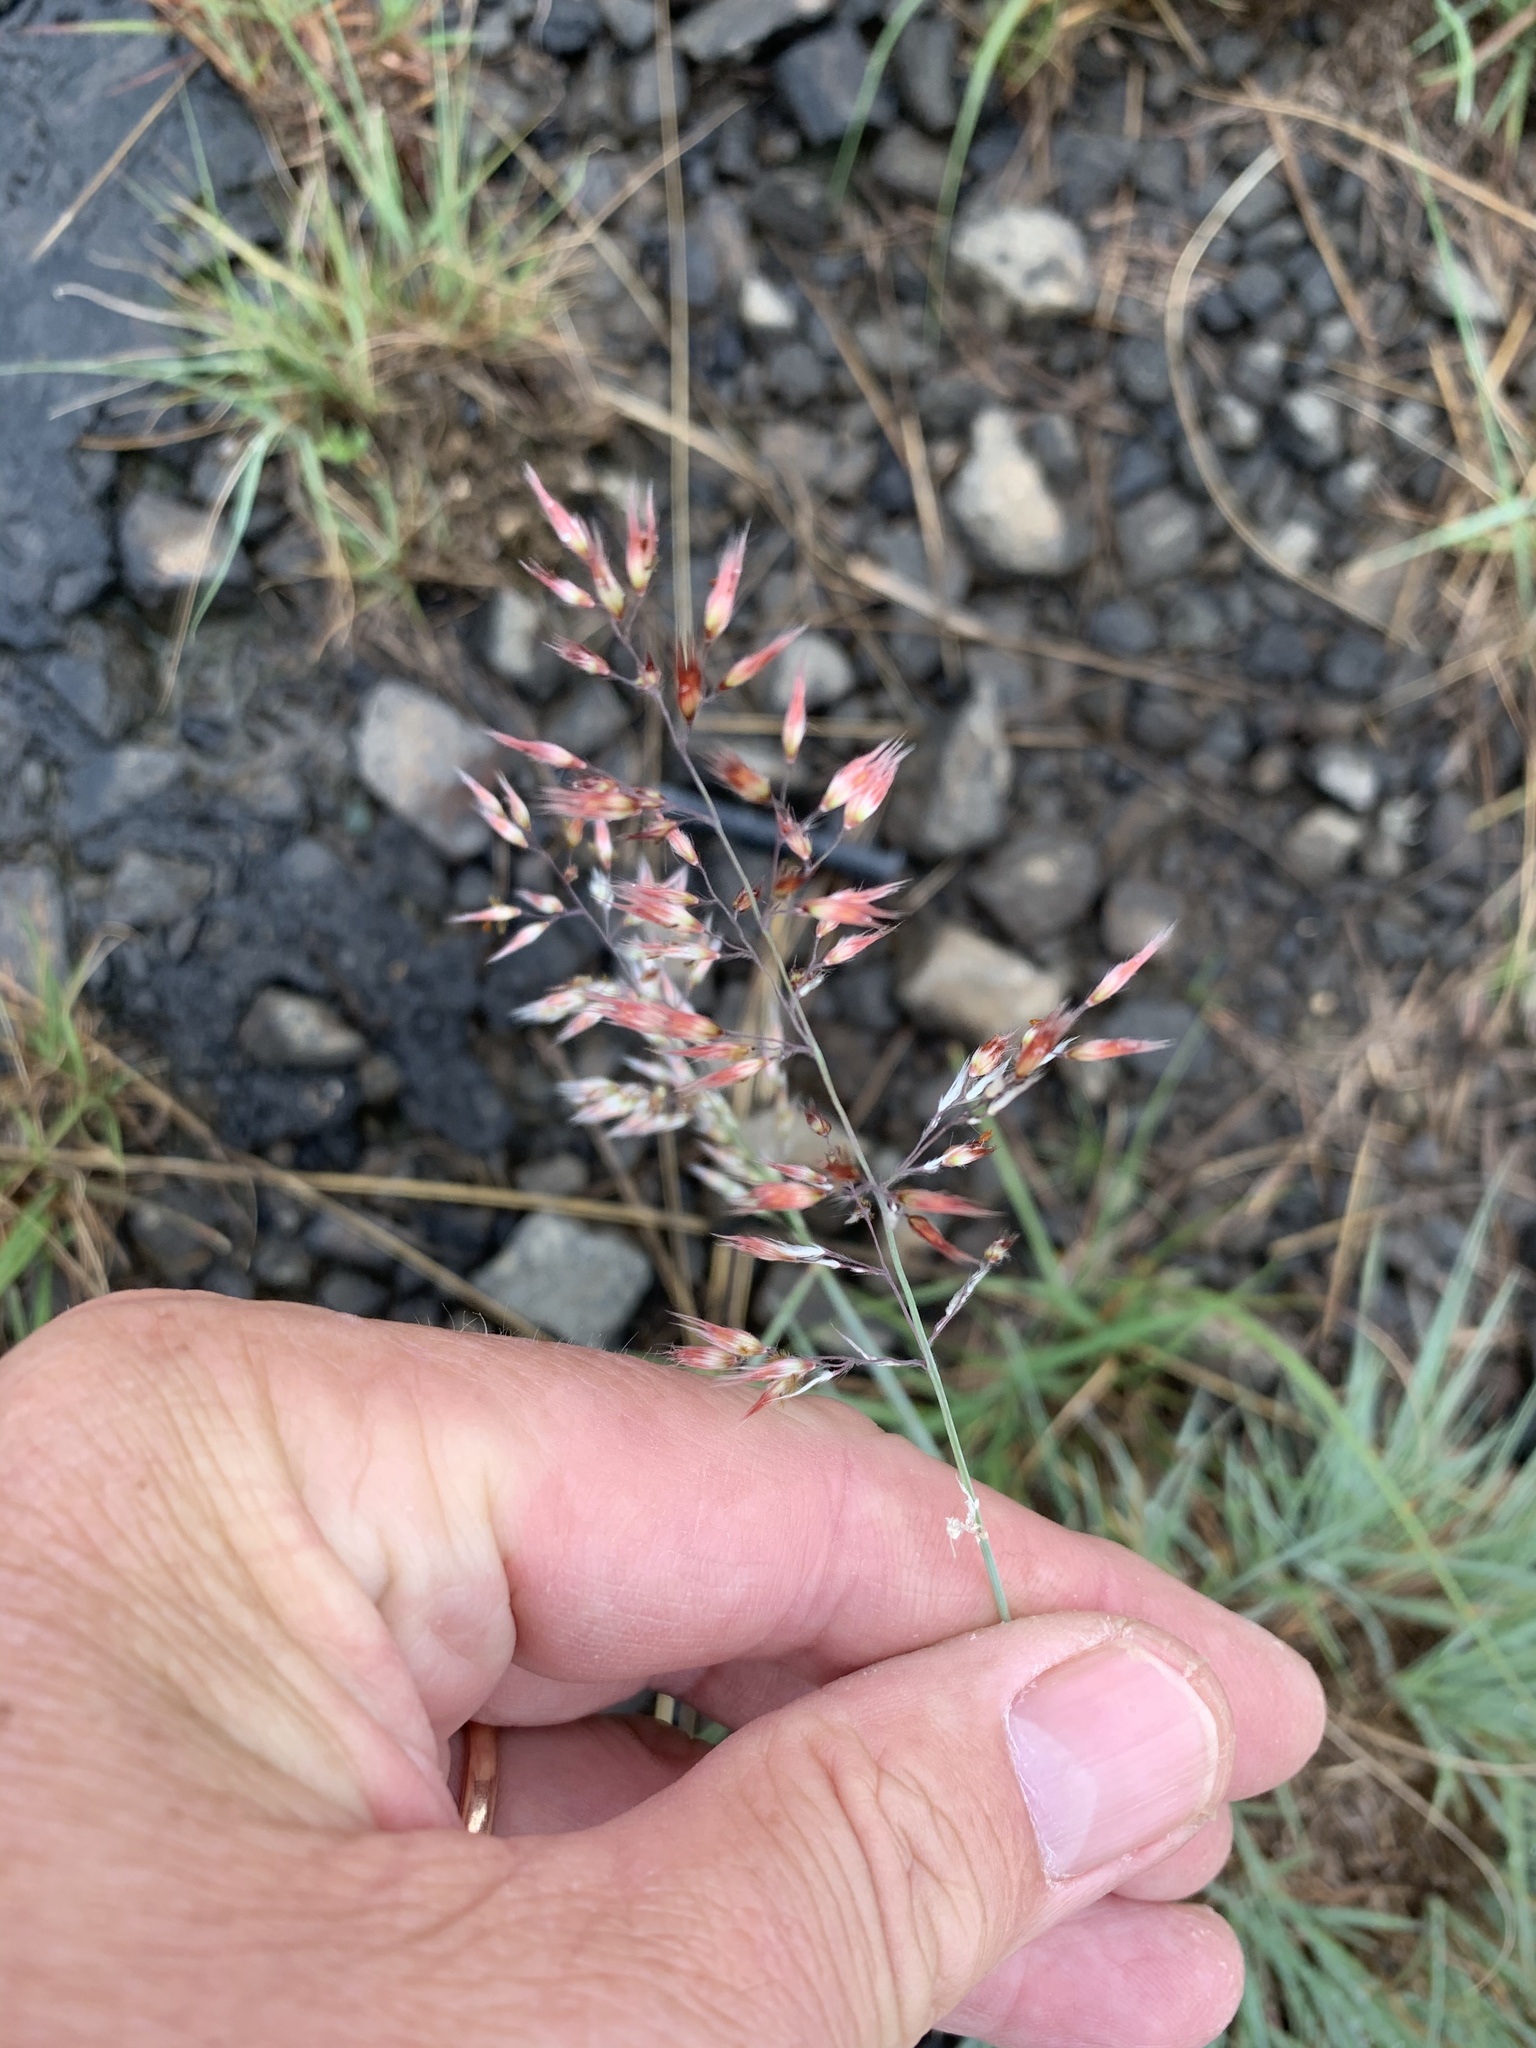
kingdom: Plantae
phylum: Tracheophyta
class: Liliopsida
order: Poales
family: Poaceae
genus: Melinis
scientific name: Melinis nerviglumis
